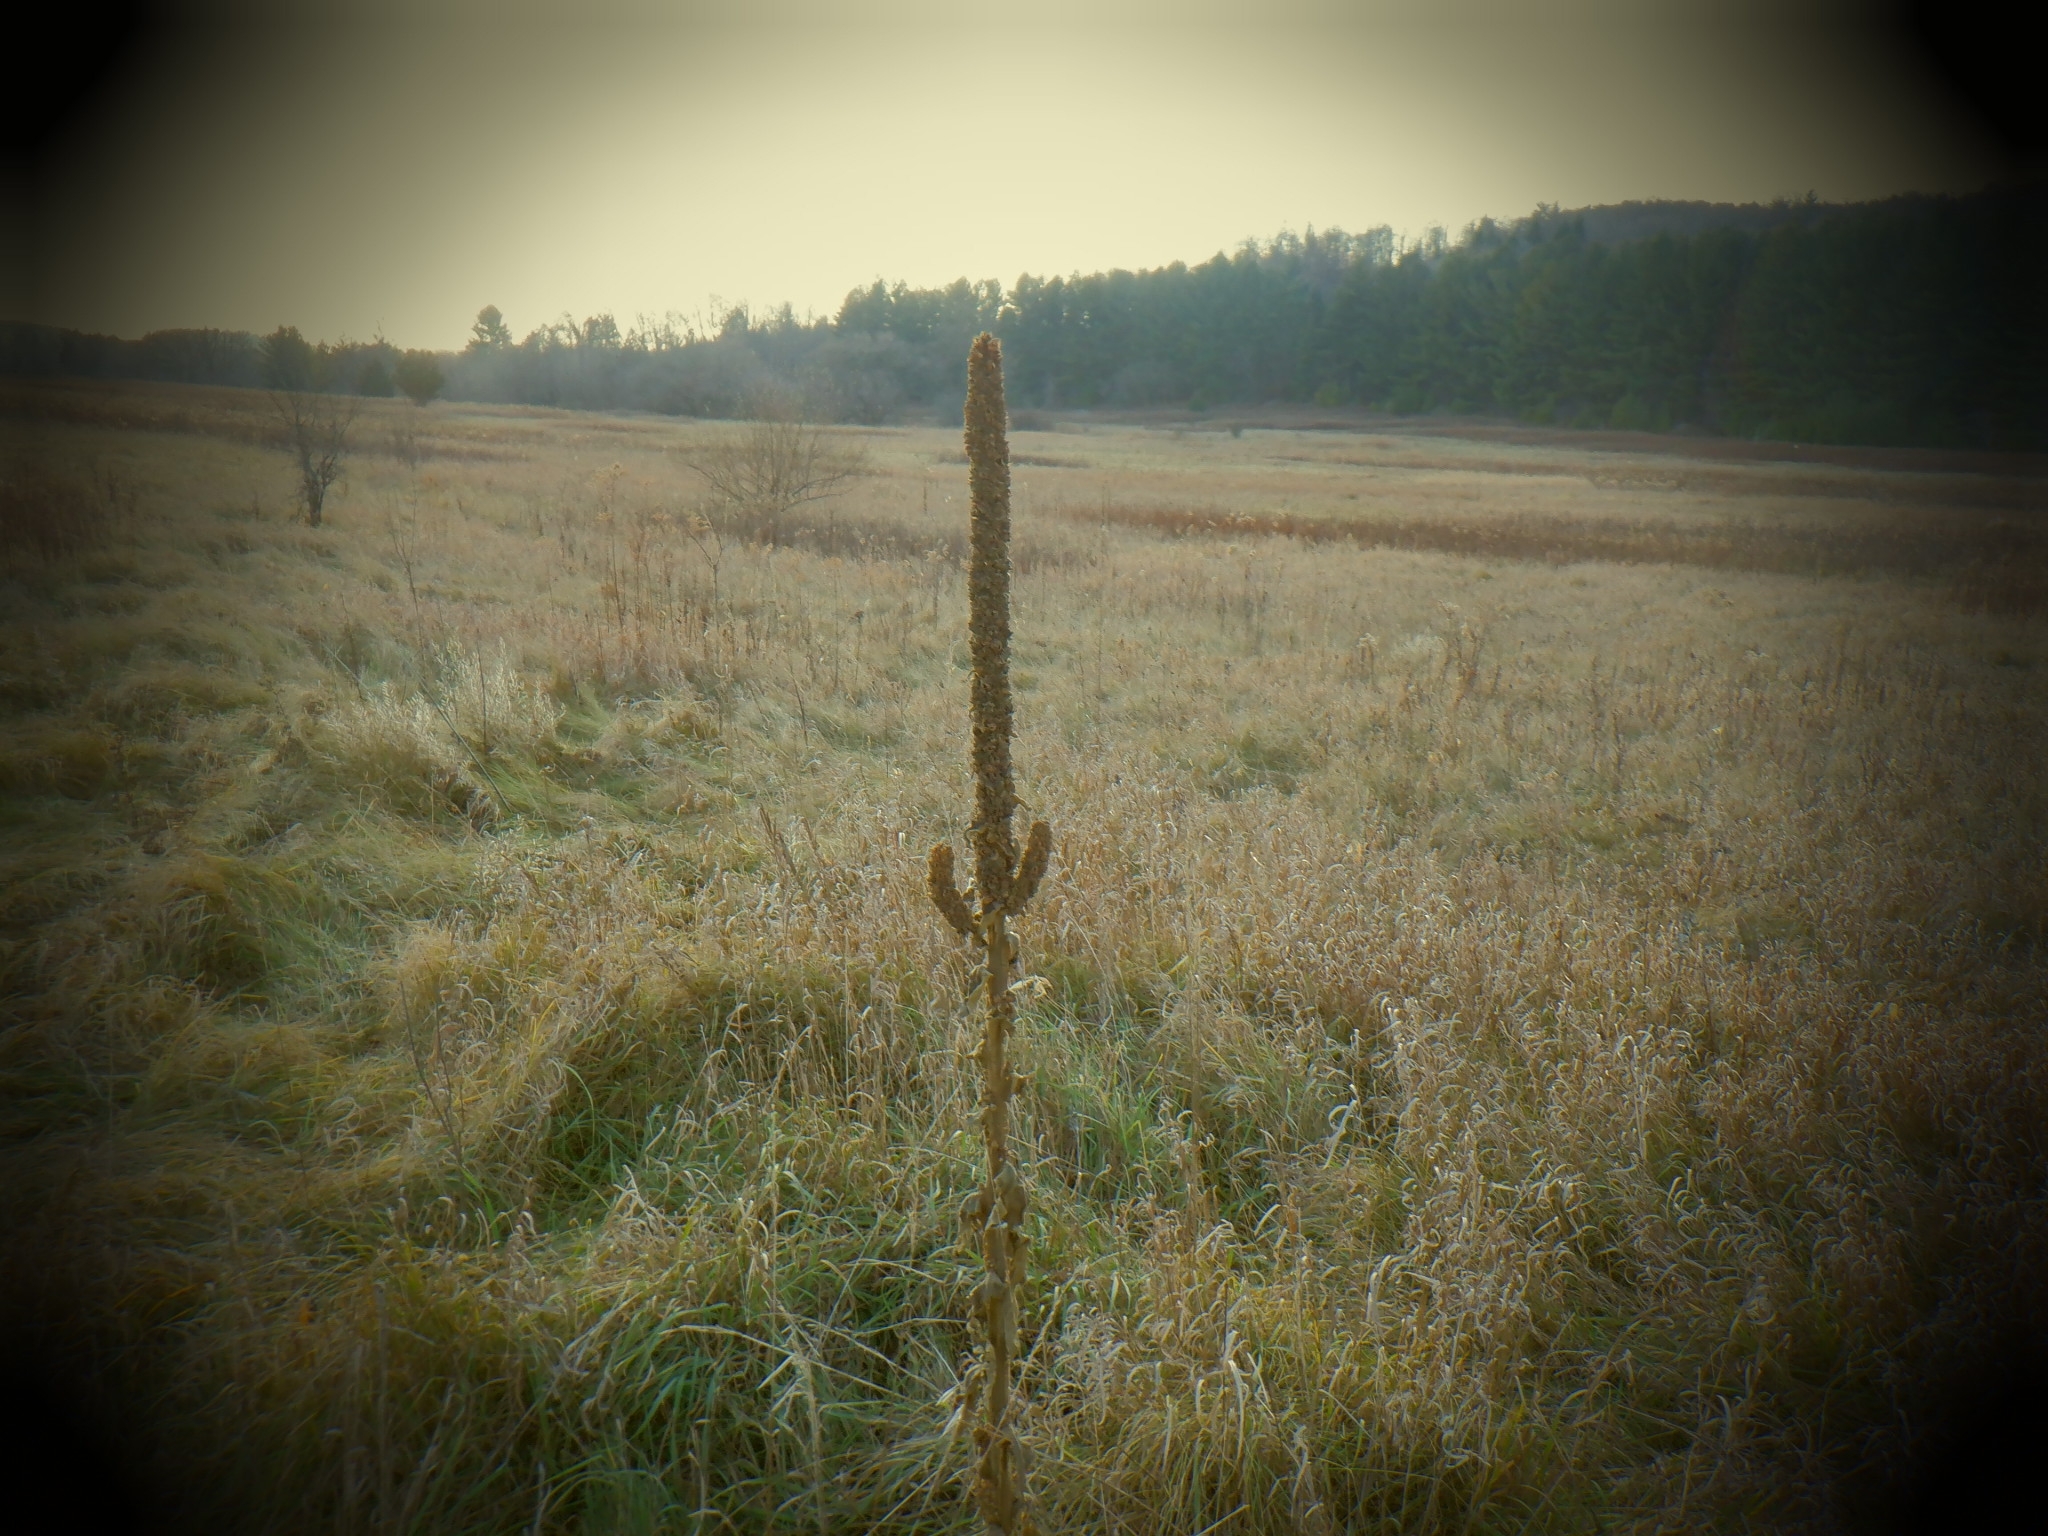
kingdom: Plantae
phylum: Tracheophyta
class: Magnoliopsida
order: Lamiales
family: Scrophulariaceae
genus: Verbascum
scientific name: Verbascum thapsus
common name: Common mullein
